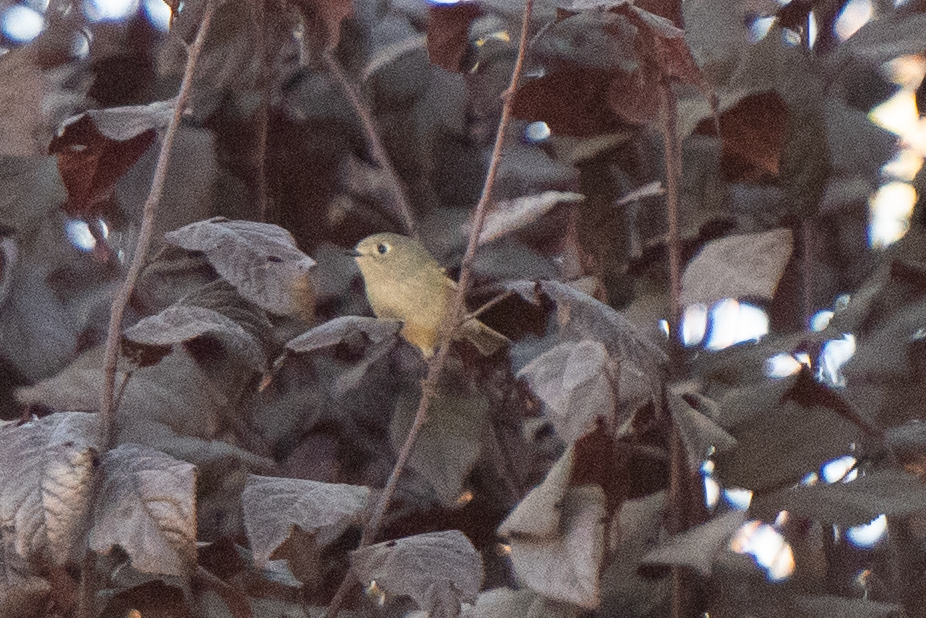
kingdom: Animalia
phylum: Chordata
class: Aves
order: Passeriformes
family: Regulidae
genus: Regulus
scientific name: Regulus calendula
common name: Ruby-crowned kinglet
